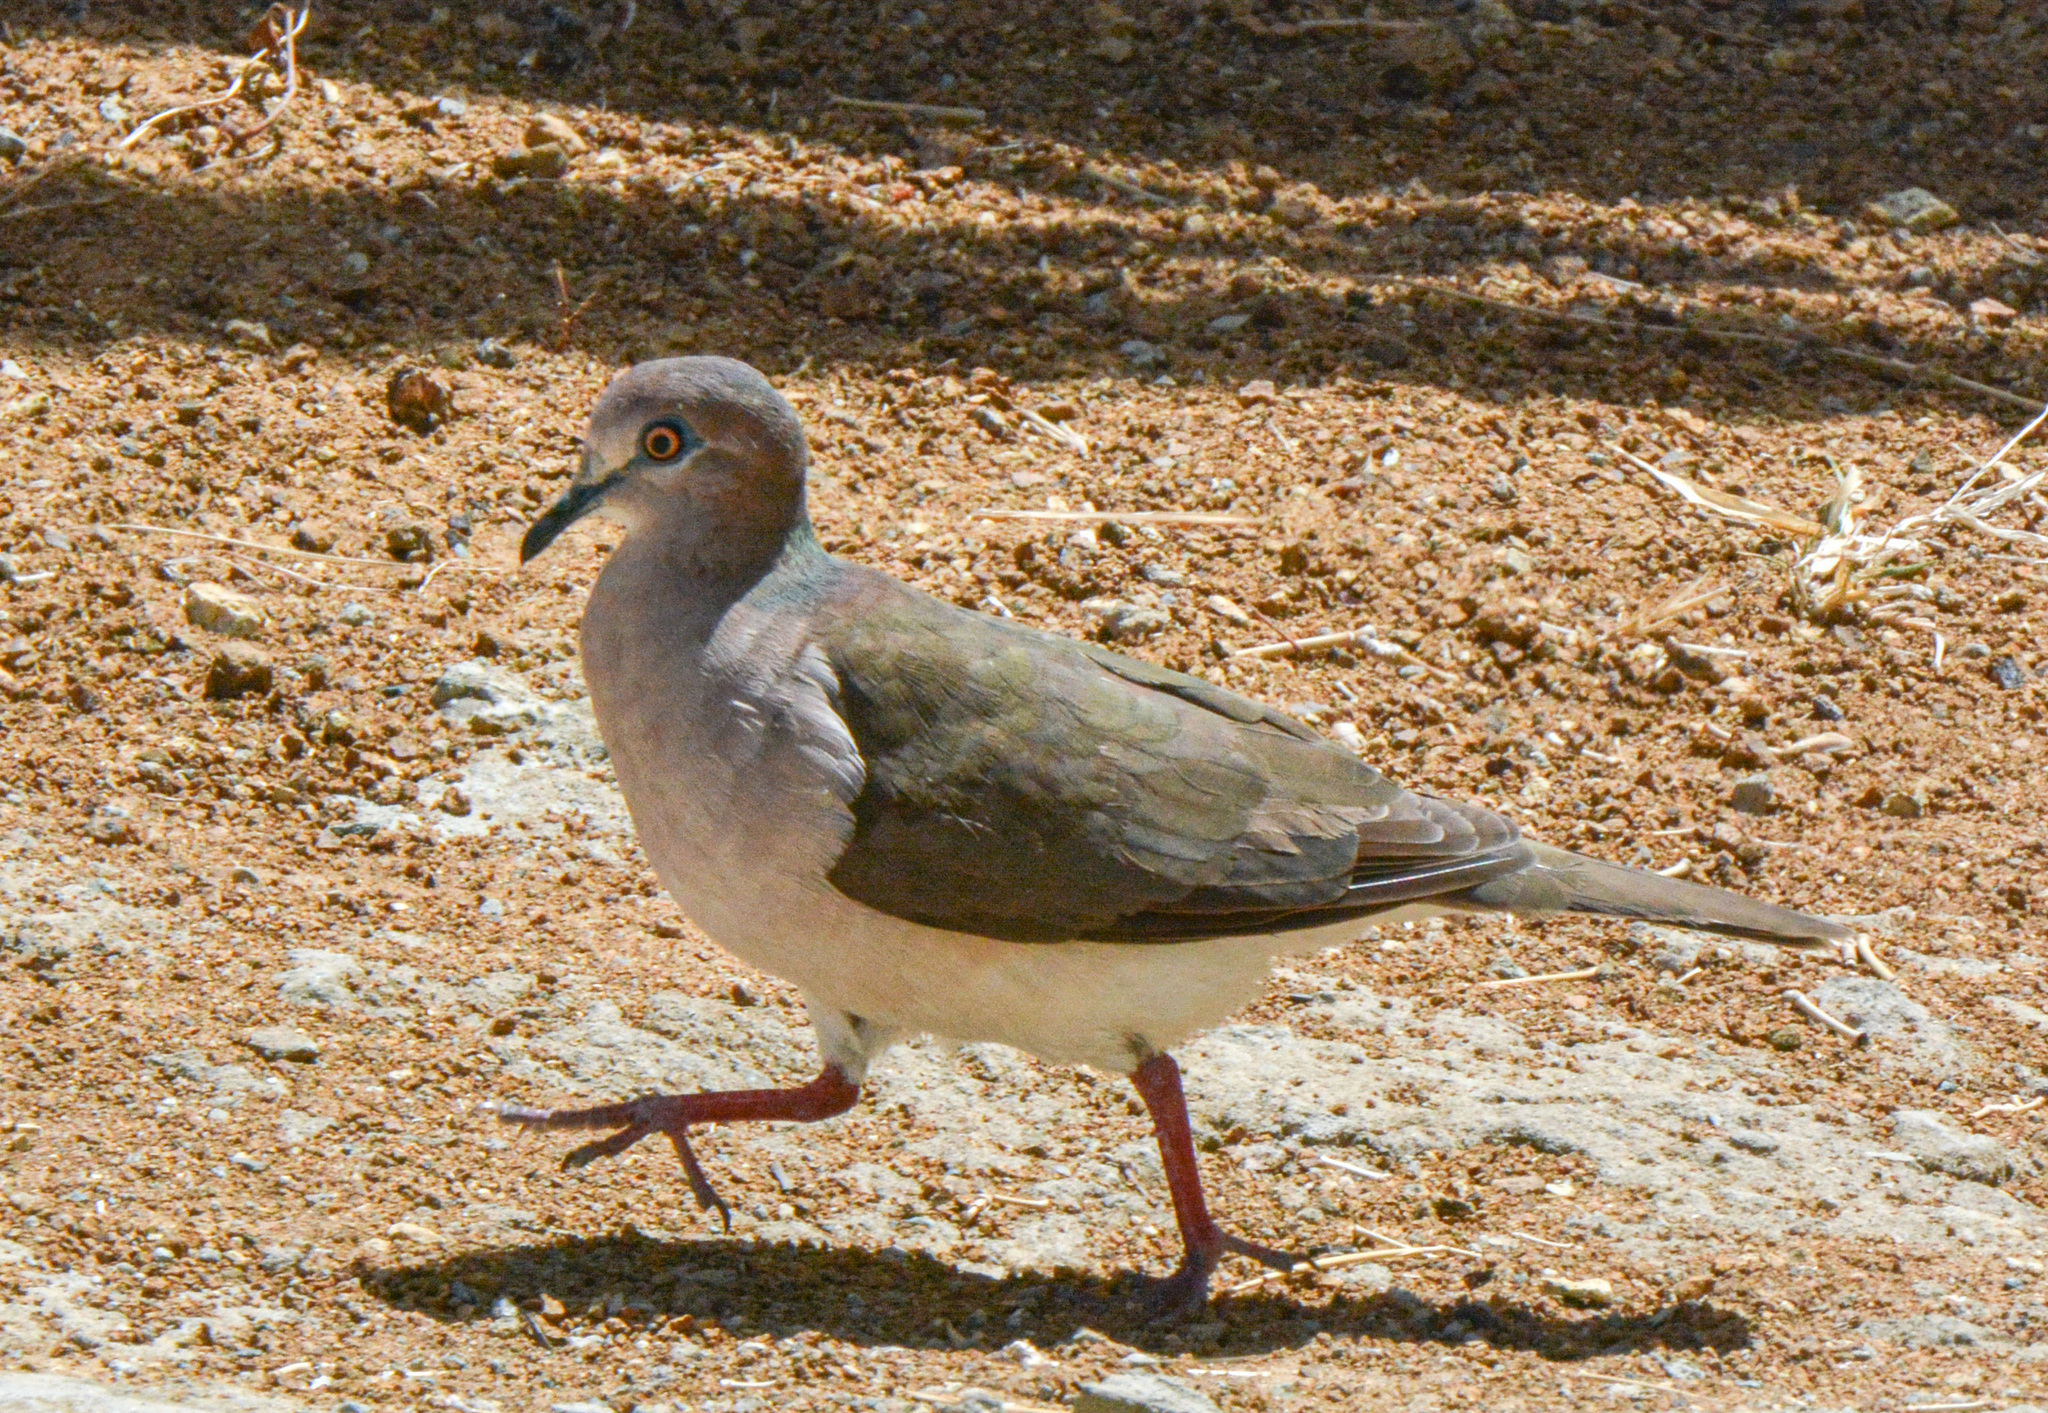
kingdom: Animalia
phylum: Chordata
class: Aves
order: Columbiformes
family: Columbidae
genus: Leptotila
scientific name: Leptotila verreauxi
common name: White-tipped dove
